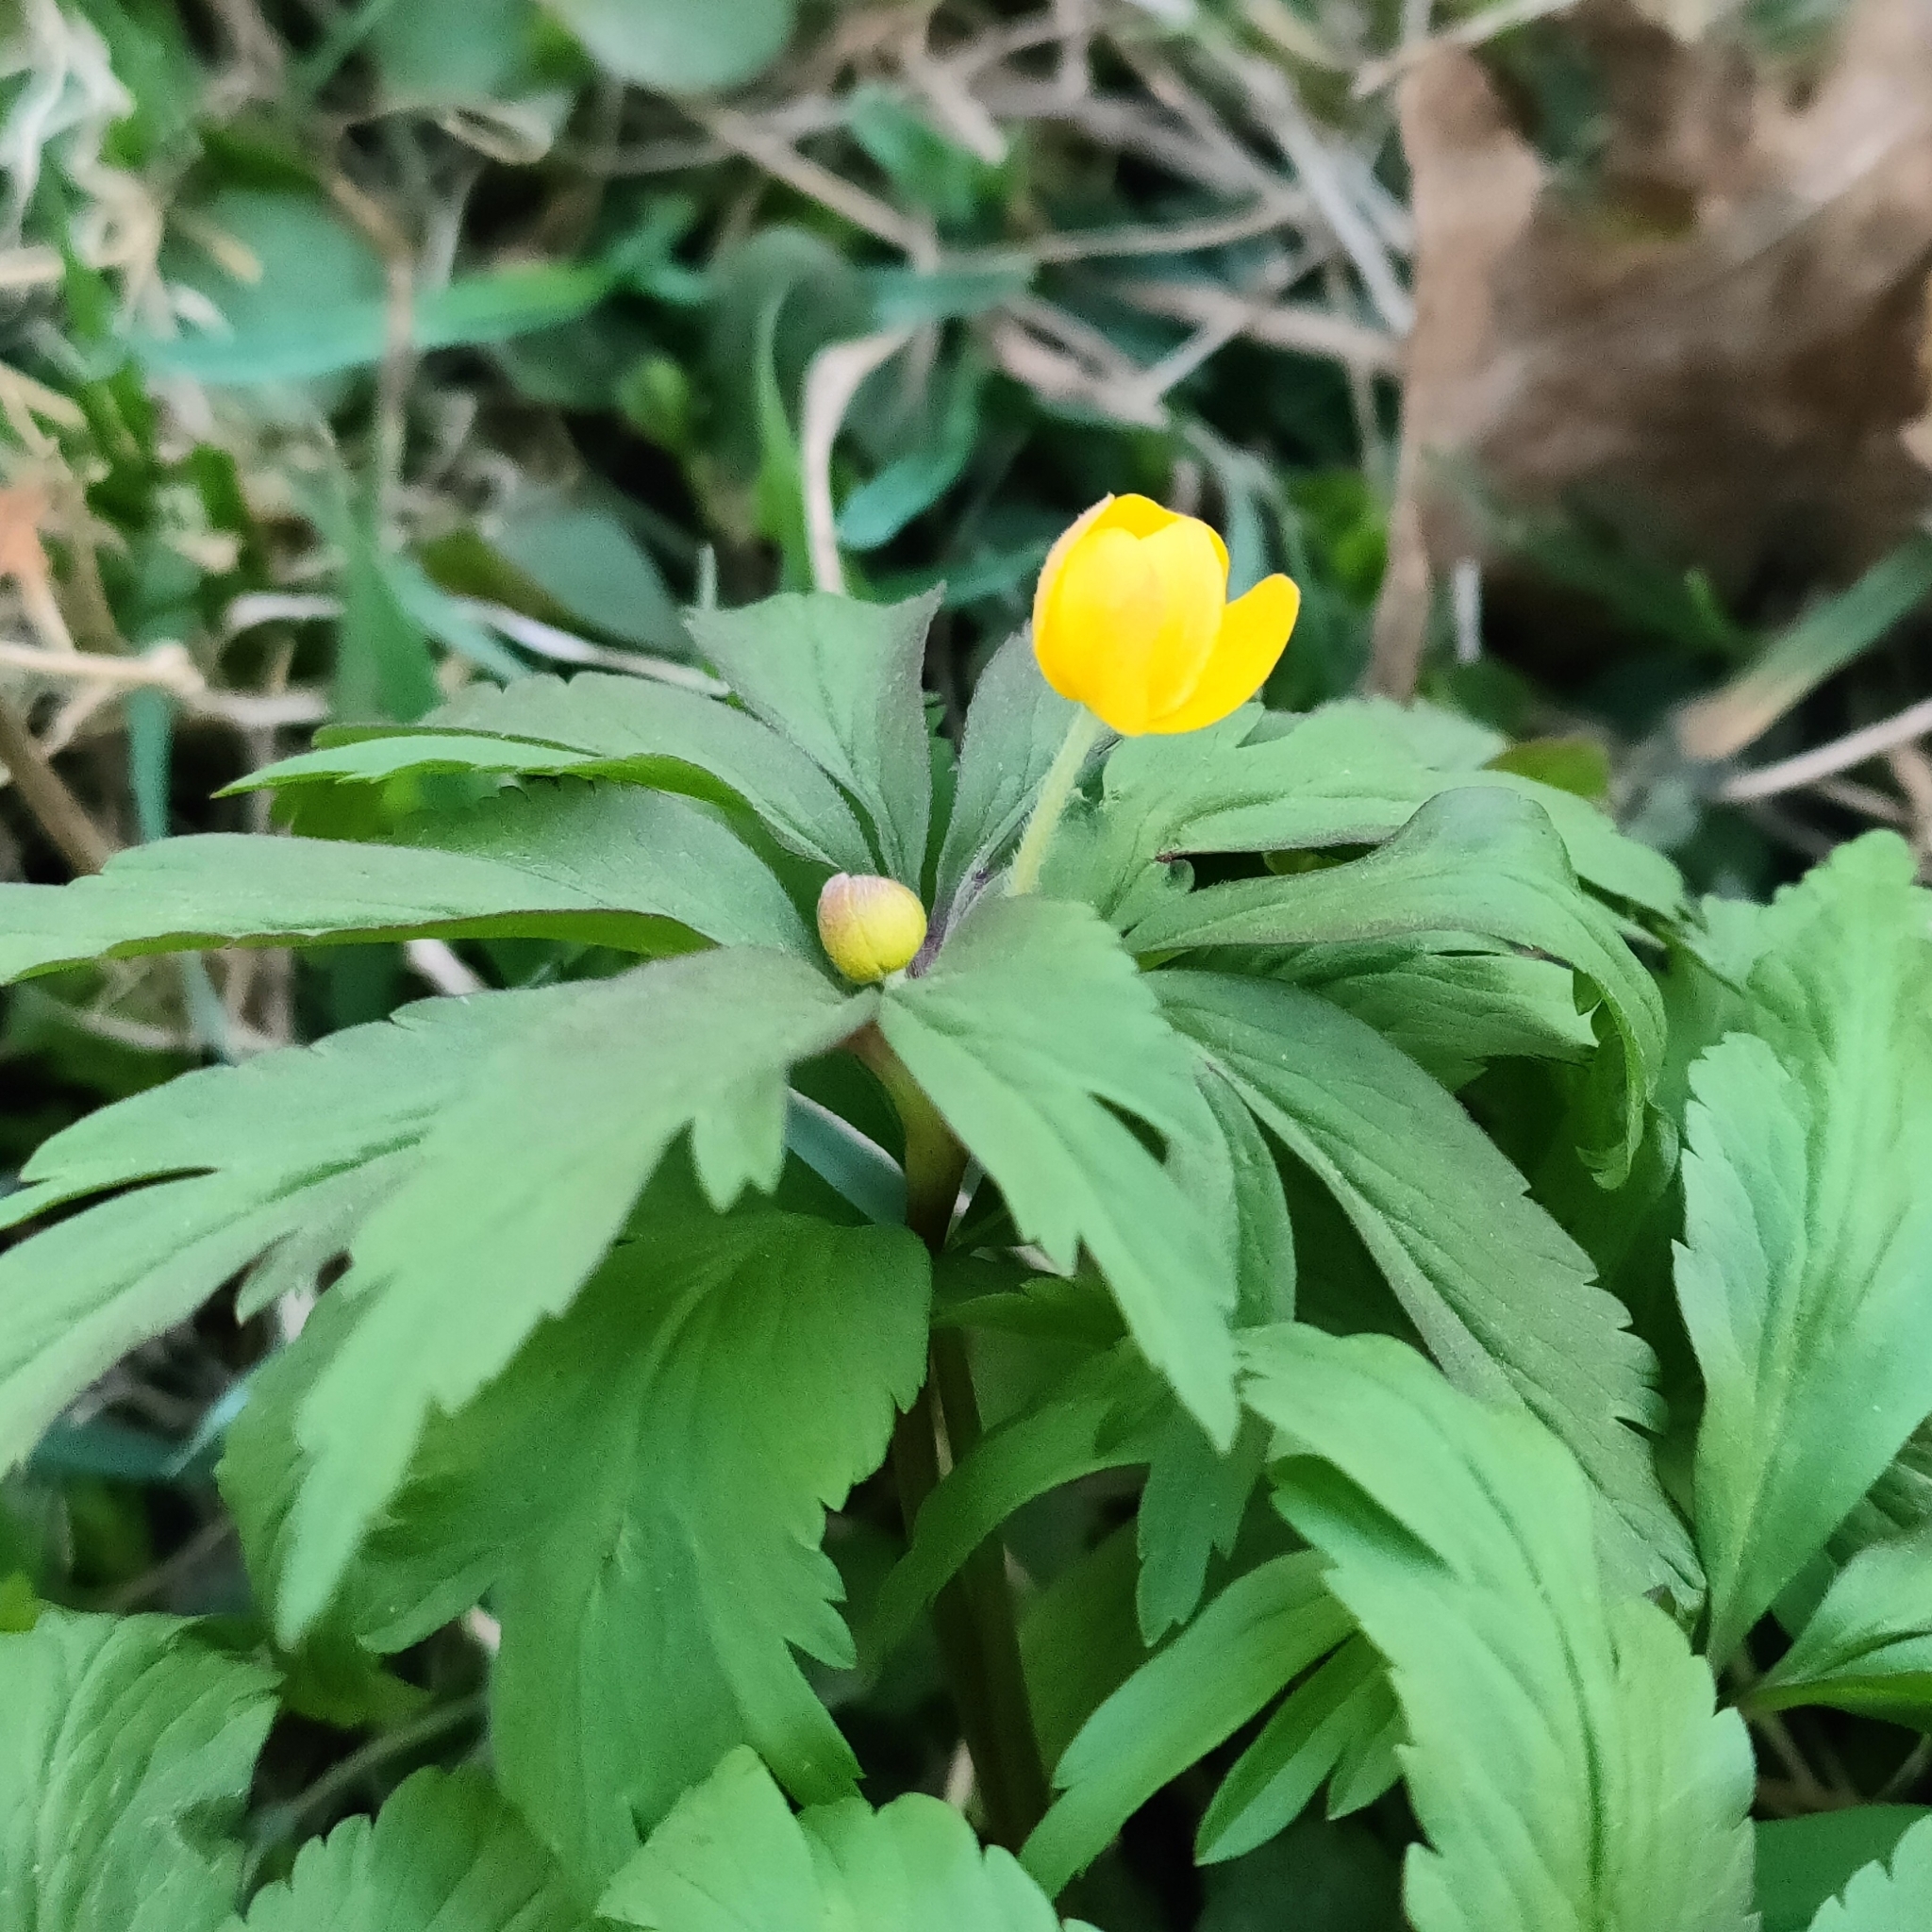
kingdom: Plantae
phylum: Tracheophyta
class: Magnoliopsida
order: Ranunculales
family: Ranunculaceae
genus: Anemone
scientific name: Anemone ranunculoides
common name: Yellow anemone
